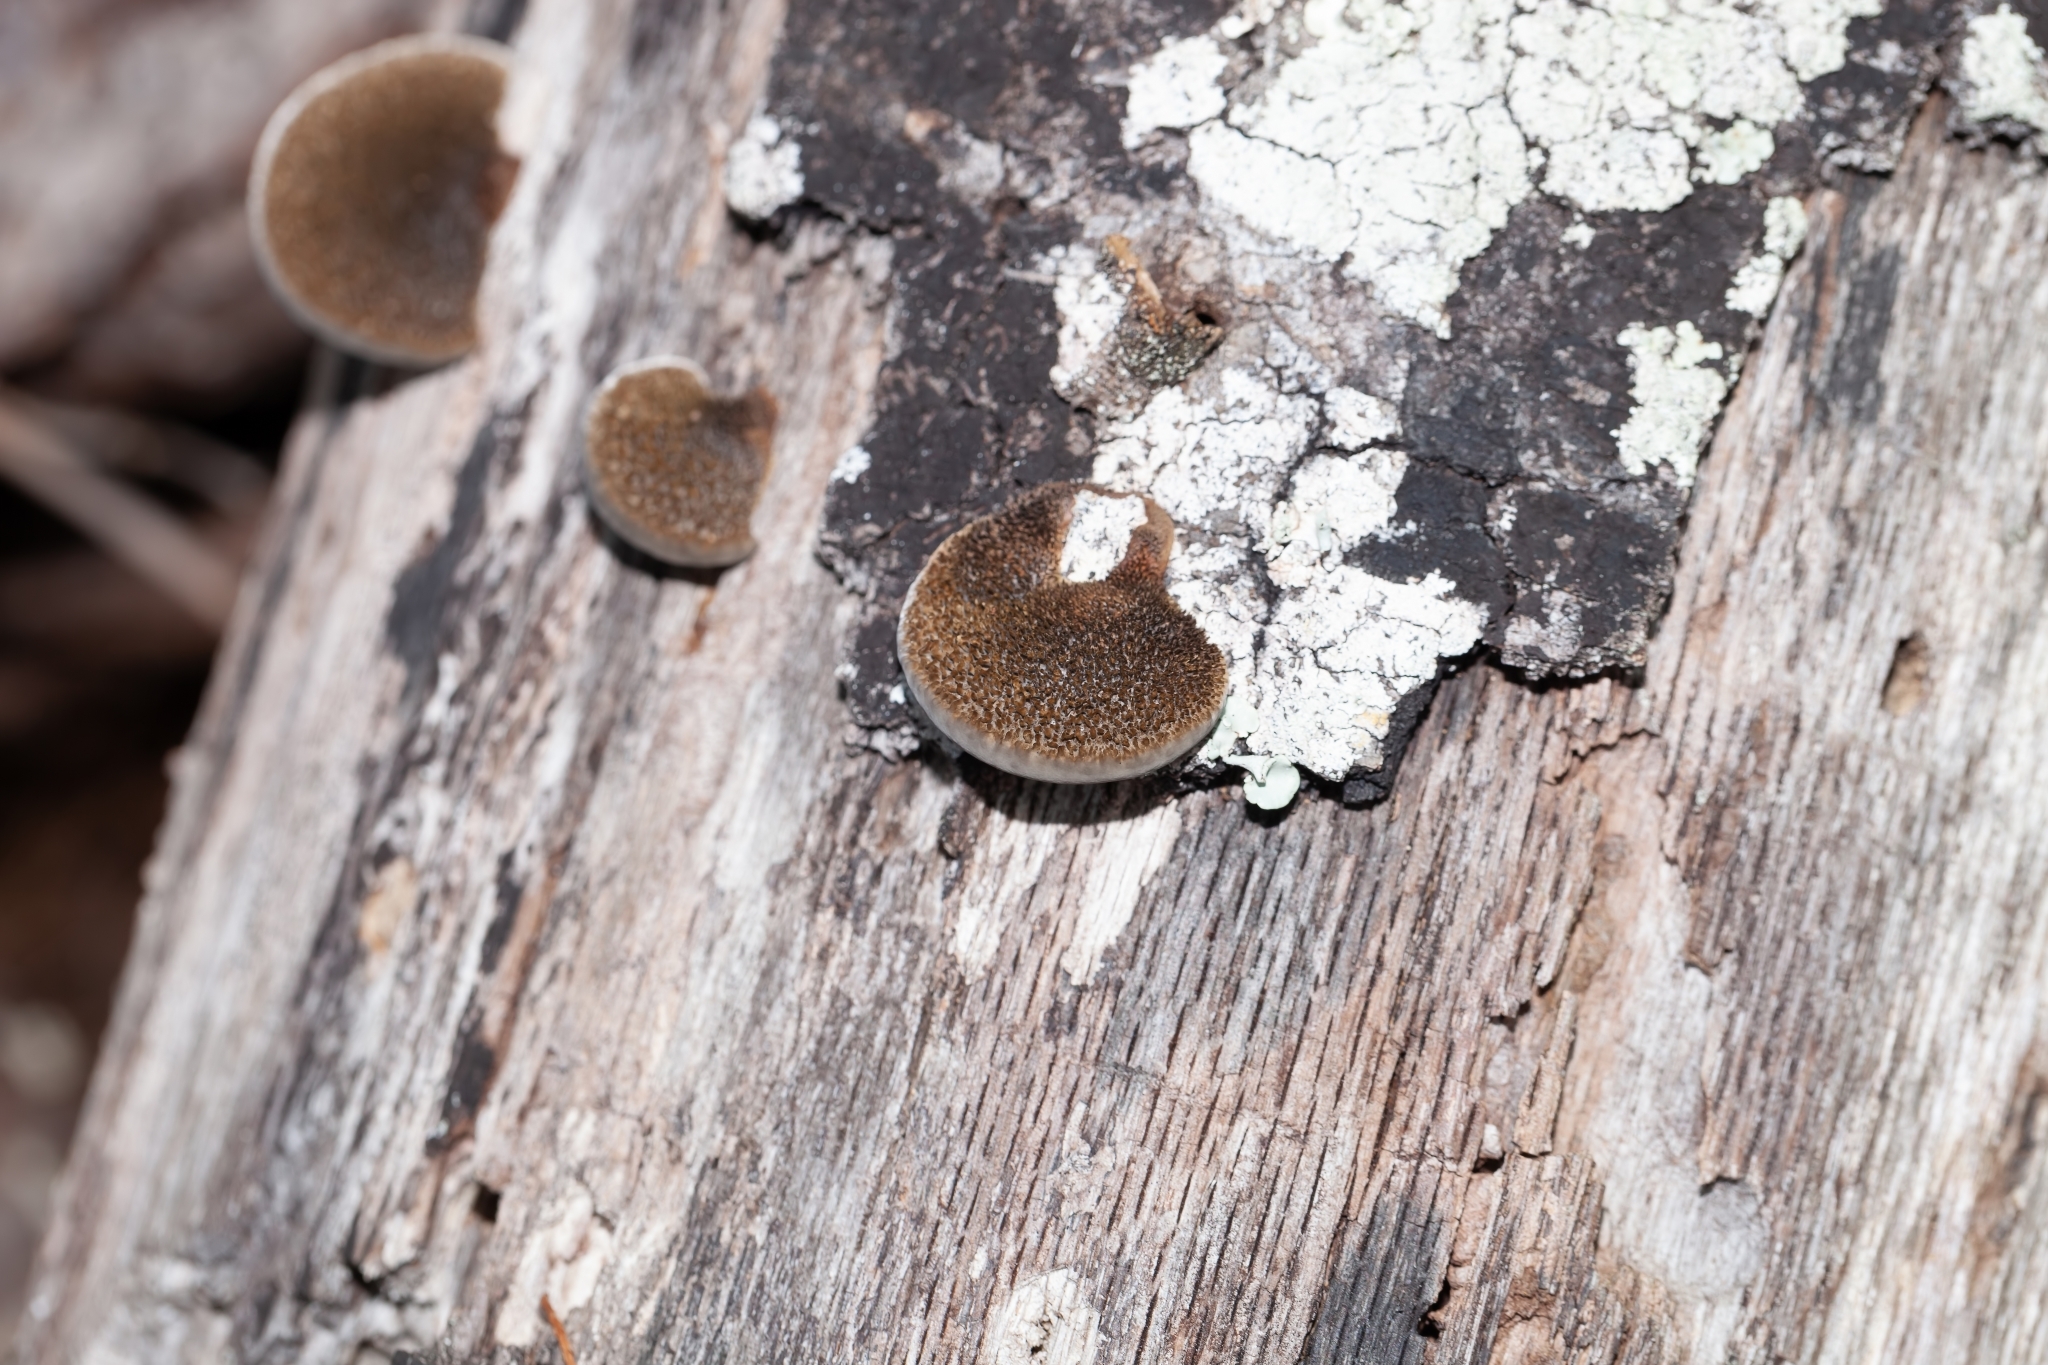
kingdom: Fungi
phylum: Basidiomycota
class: Agaricomycetes
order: Polyporales
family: Cerrenaceae
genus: Cerrena
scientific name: Cerrena hydnoides
